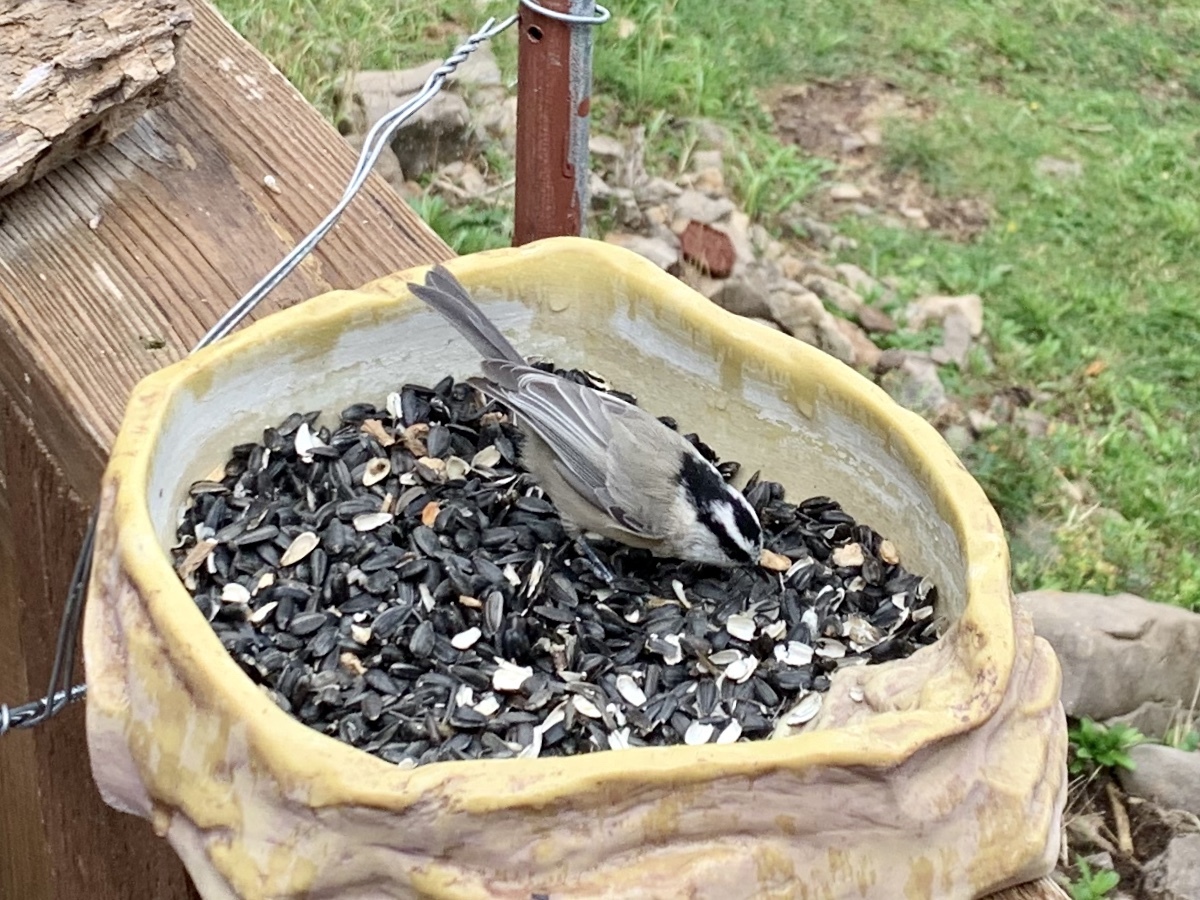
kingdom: Animalia
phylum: Chordata
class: Aves
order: Passeriformes
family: Paridae
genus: Poecile
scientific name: Poecile gambeli
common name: Mountain chickadee
